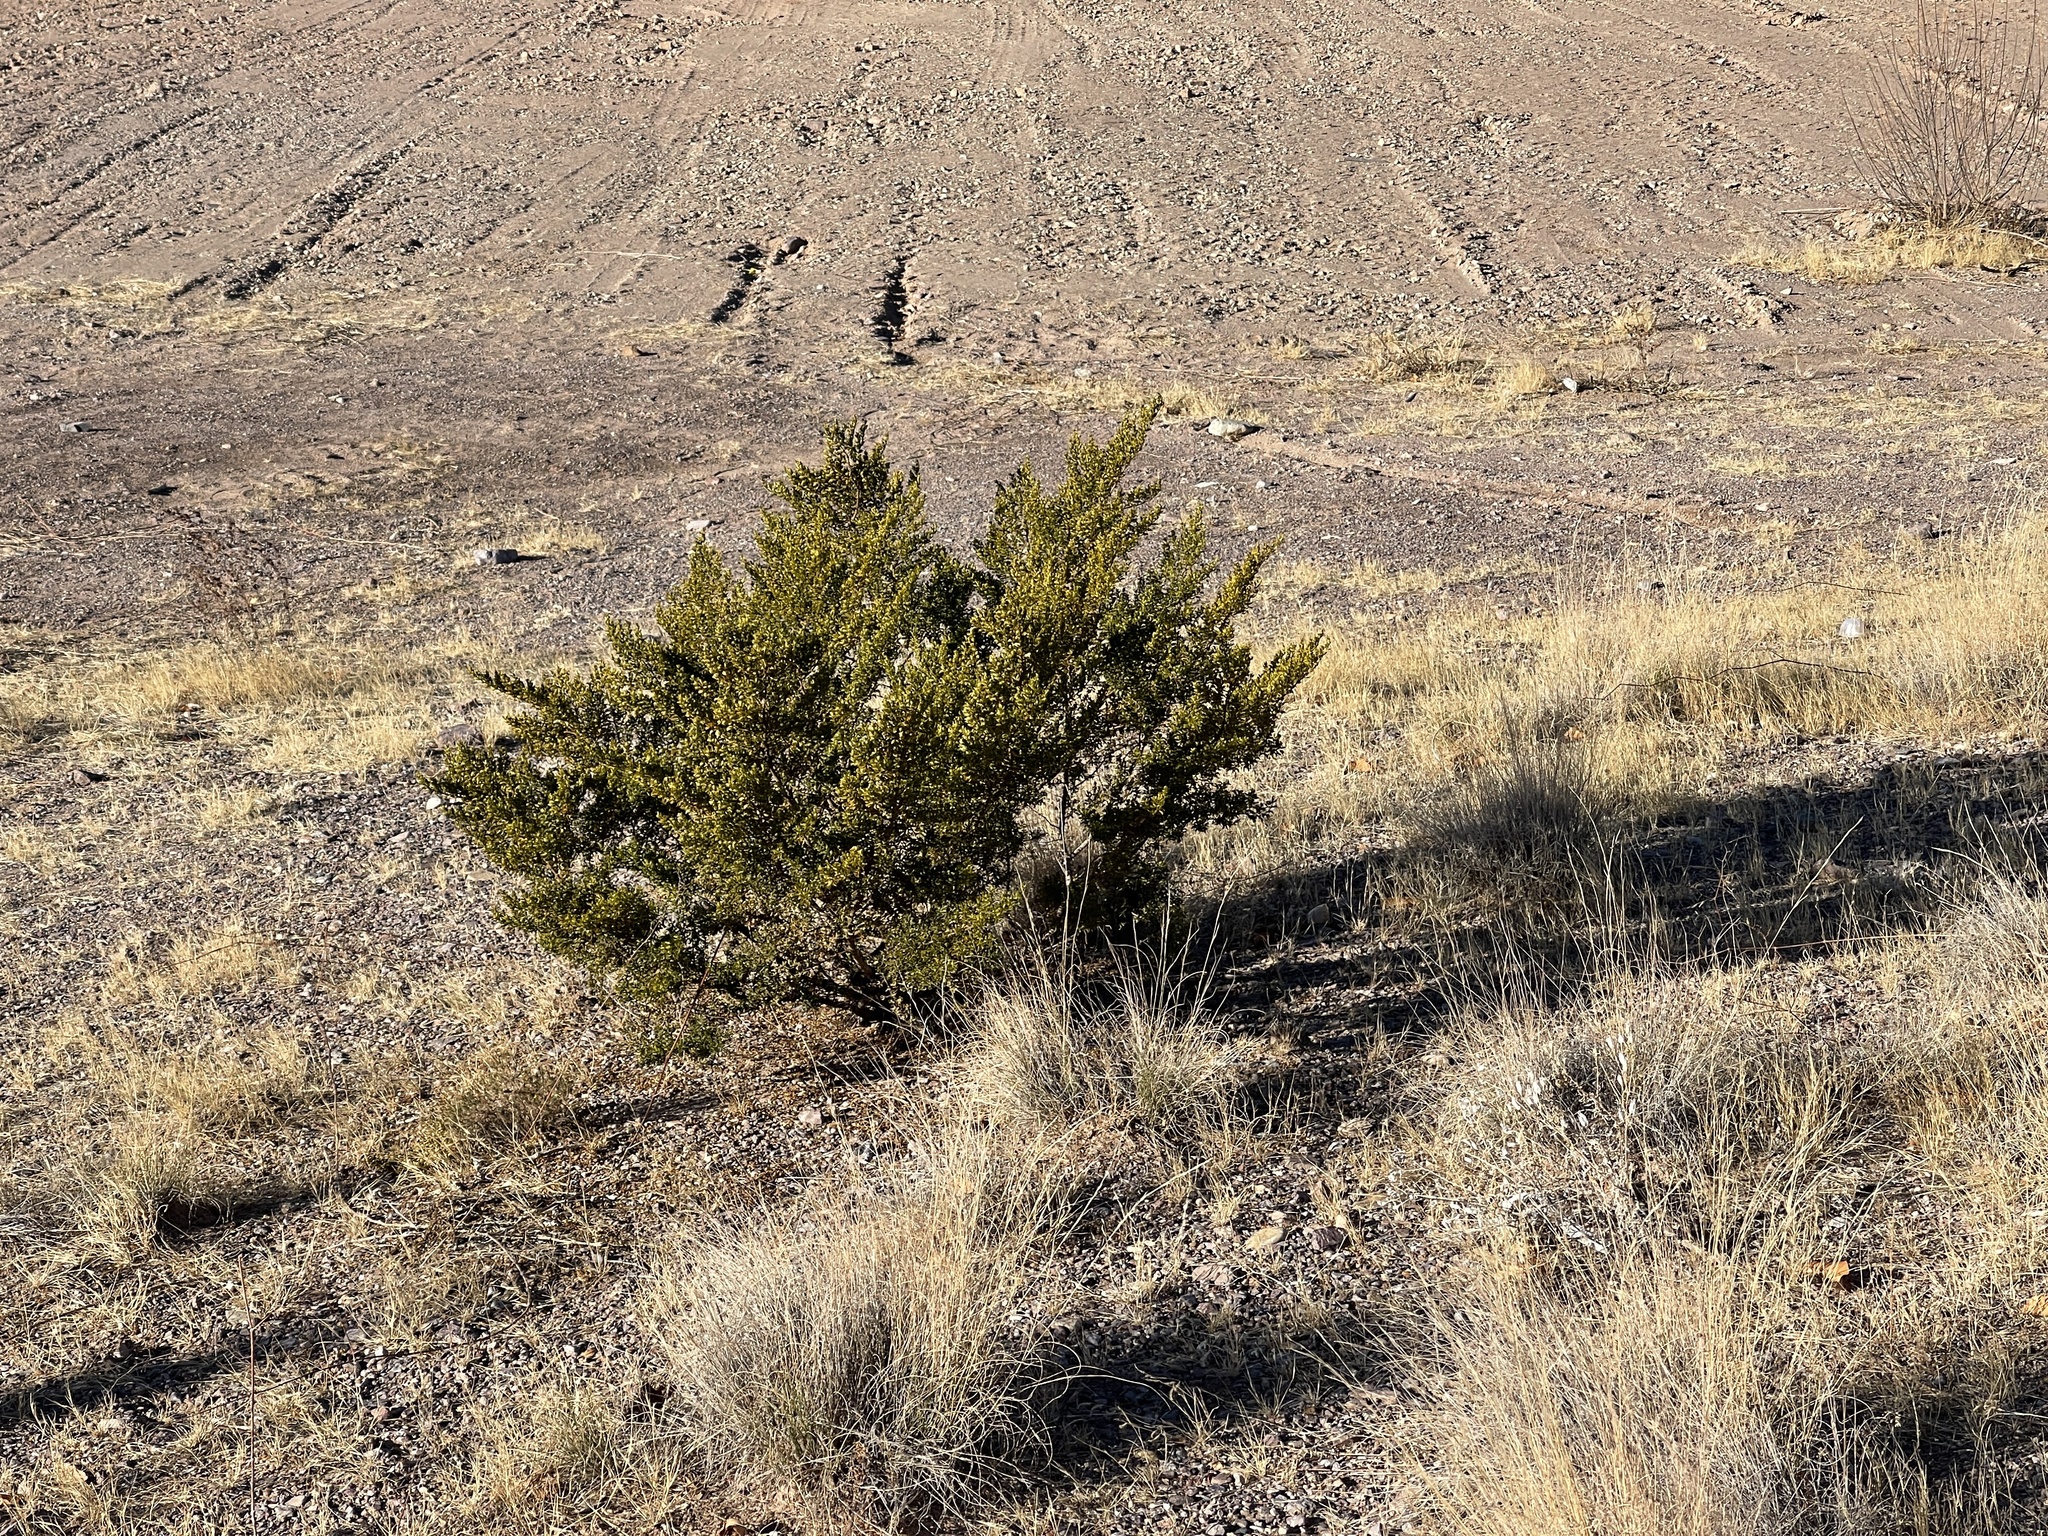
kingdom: Plantae
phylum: Tracheophyta
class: Magnoliopsida
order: Zygophyllales
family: Zygophyllaceae
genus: Larrea
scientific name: Larrea tridentata
